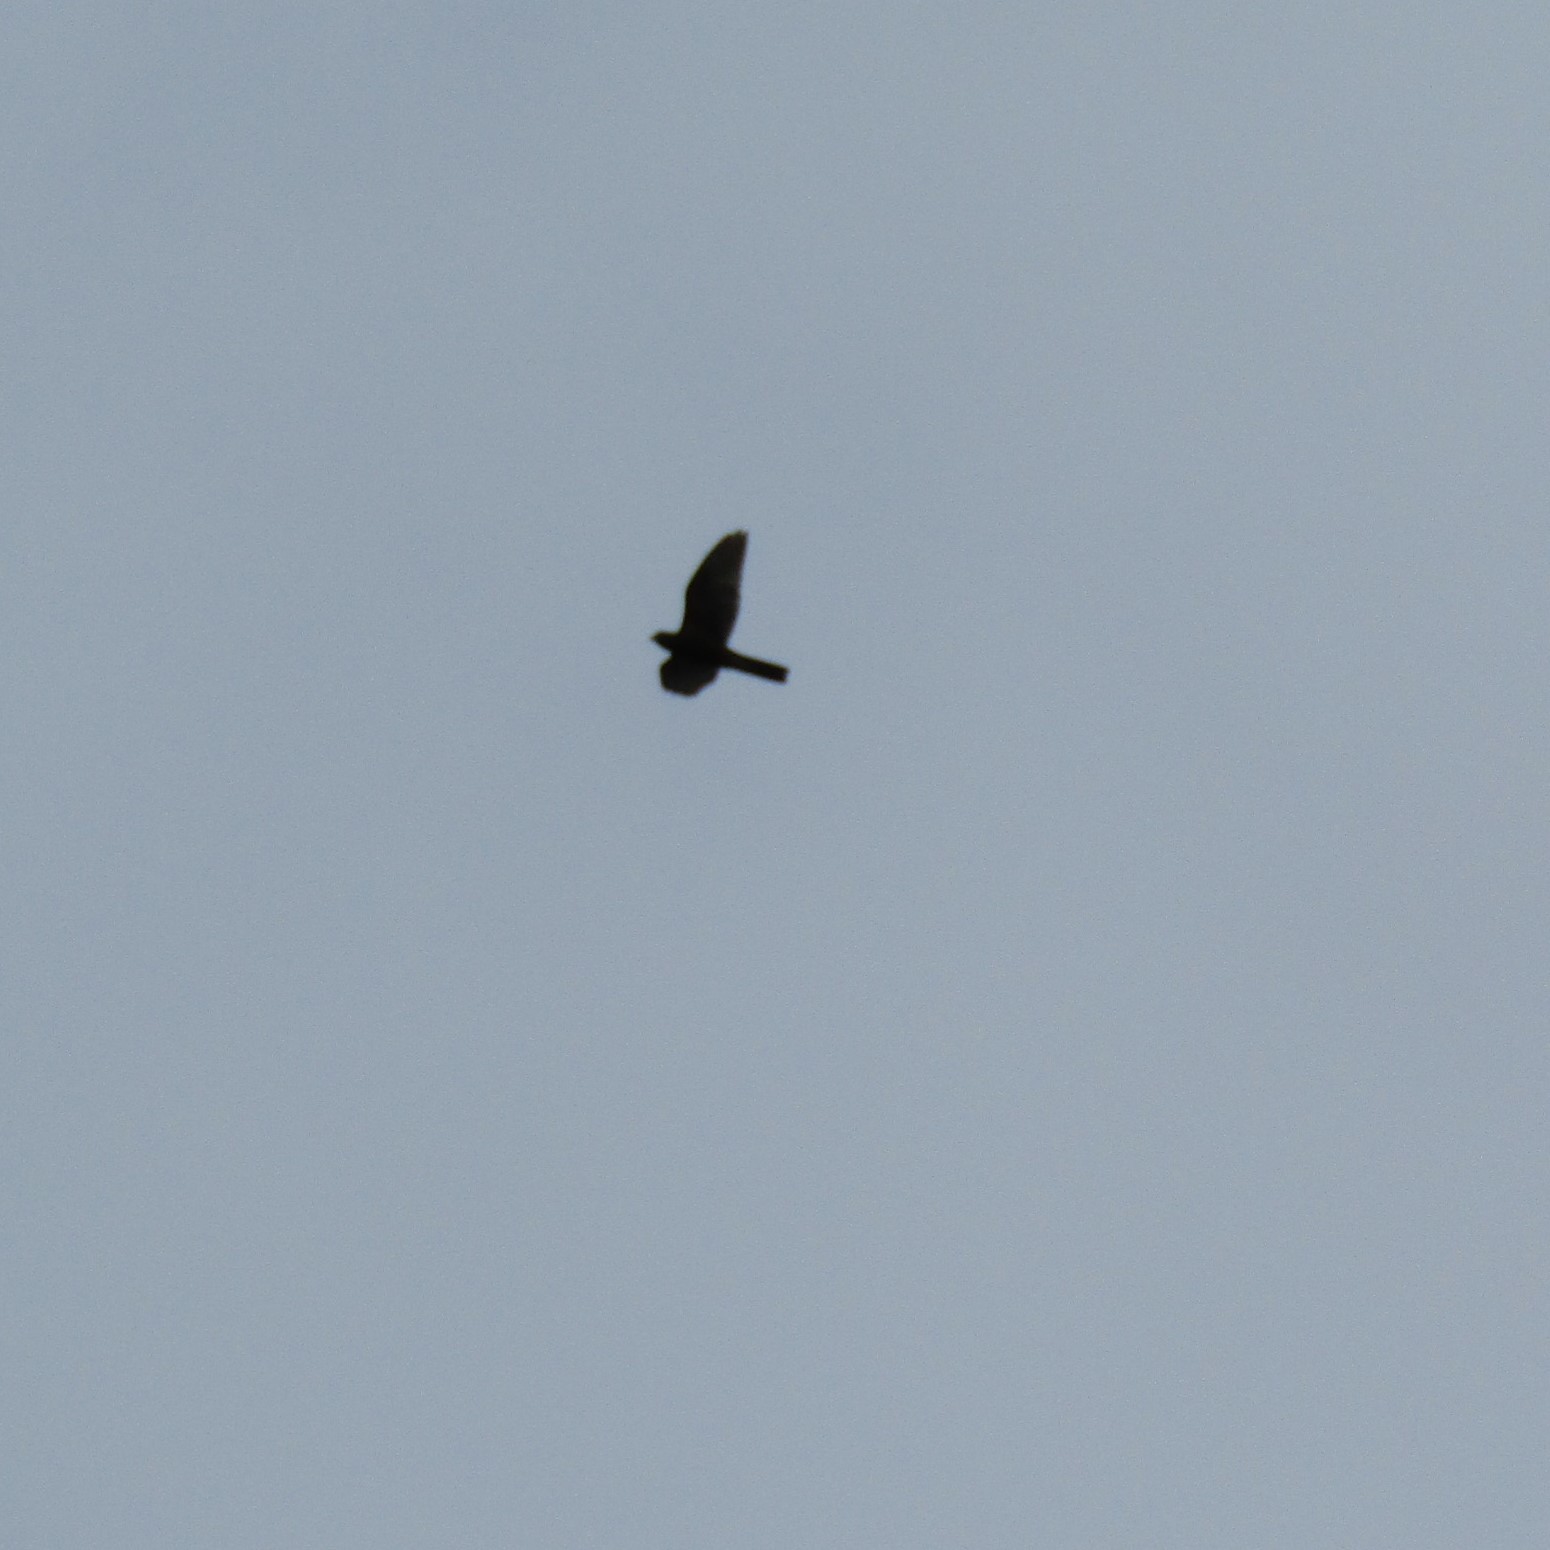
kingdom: Animalia
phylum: Chordata
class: Aves
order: Falconiformes
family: Falconidae
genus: Falco
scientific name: Falco novaeseelandiae
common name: New zealand falcon
